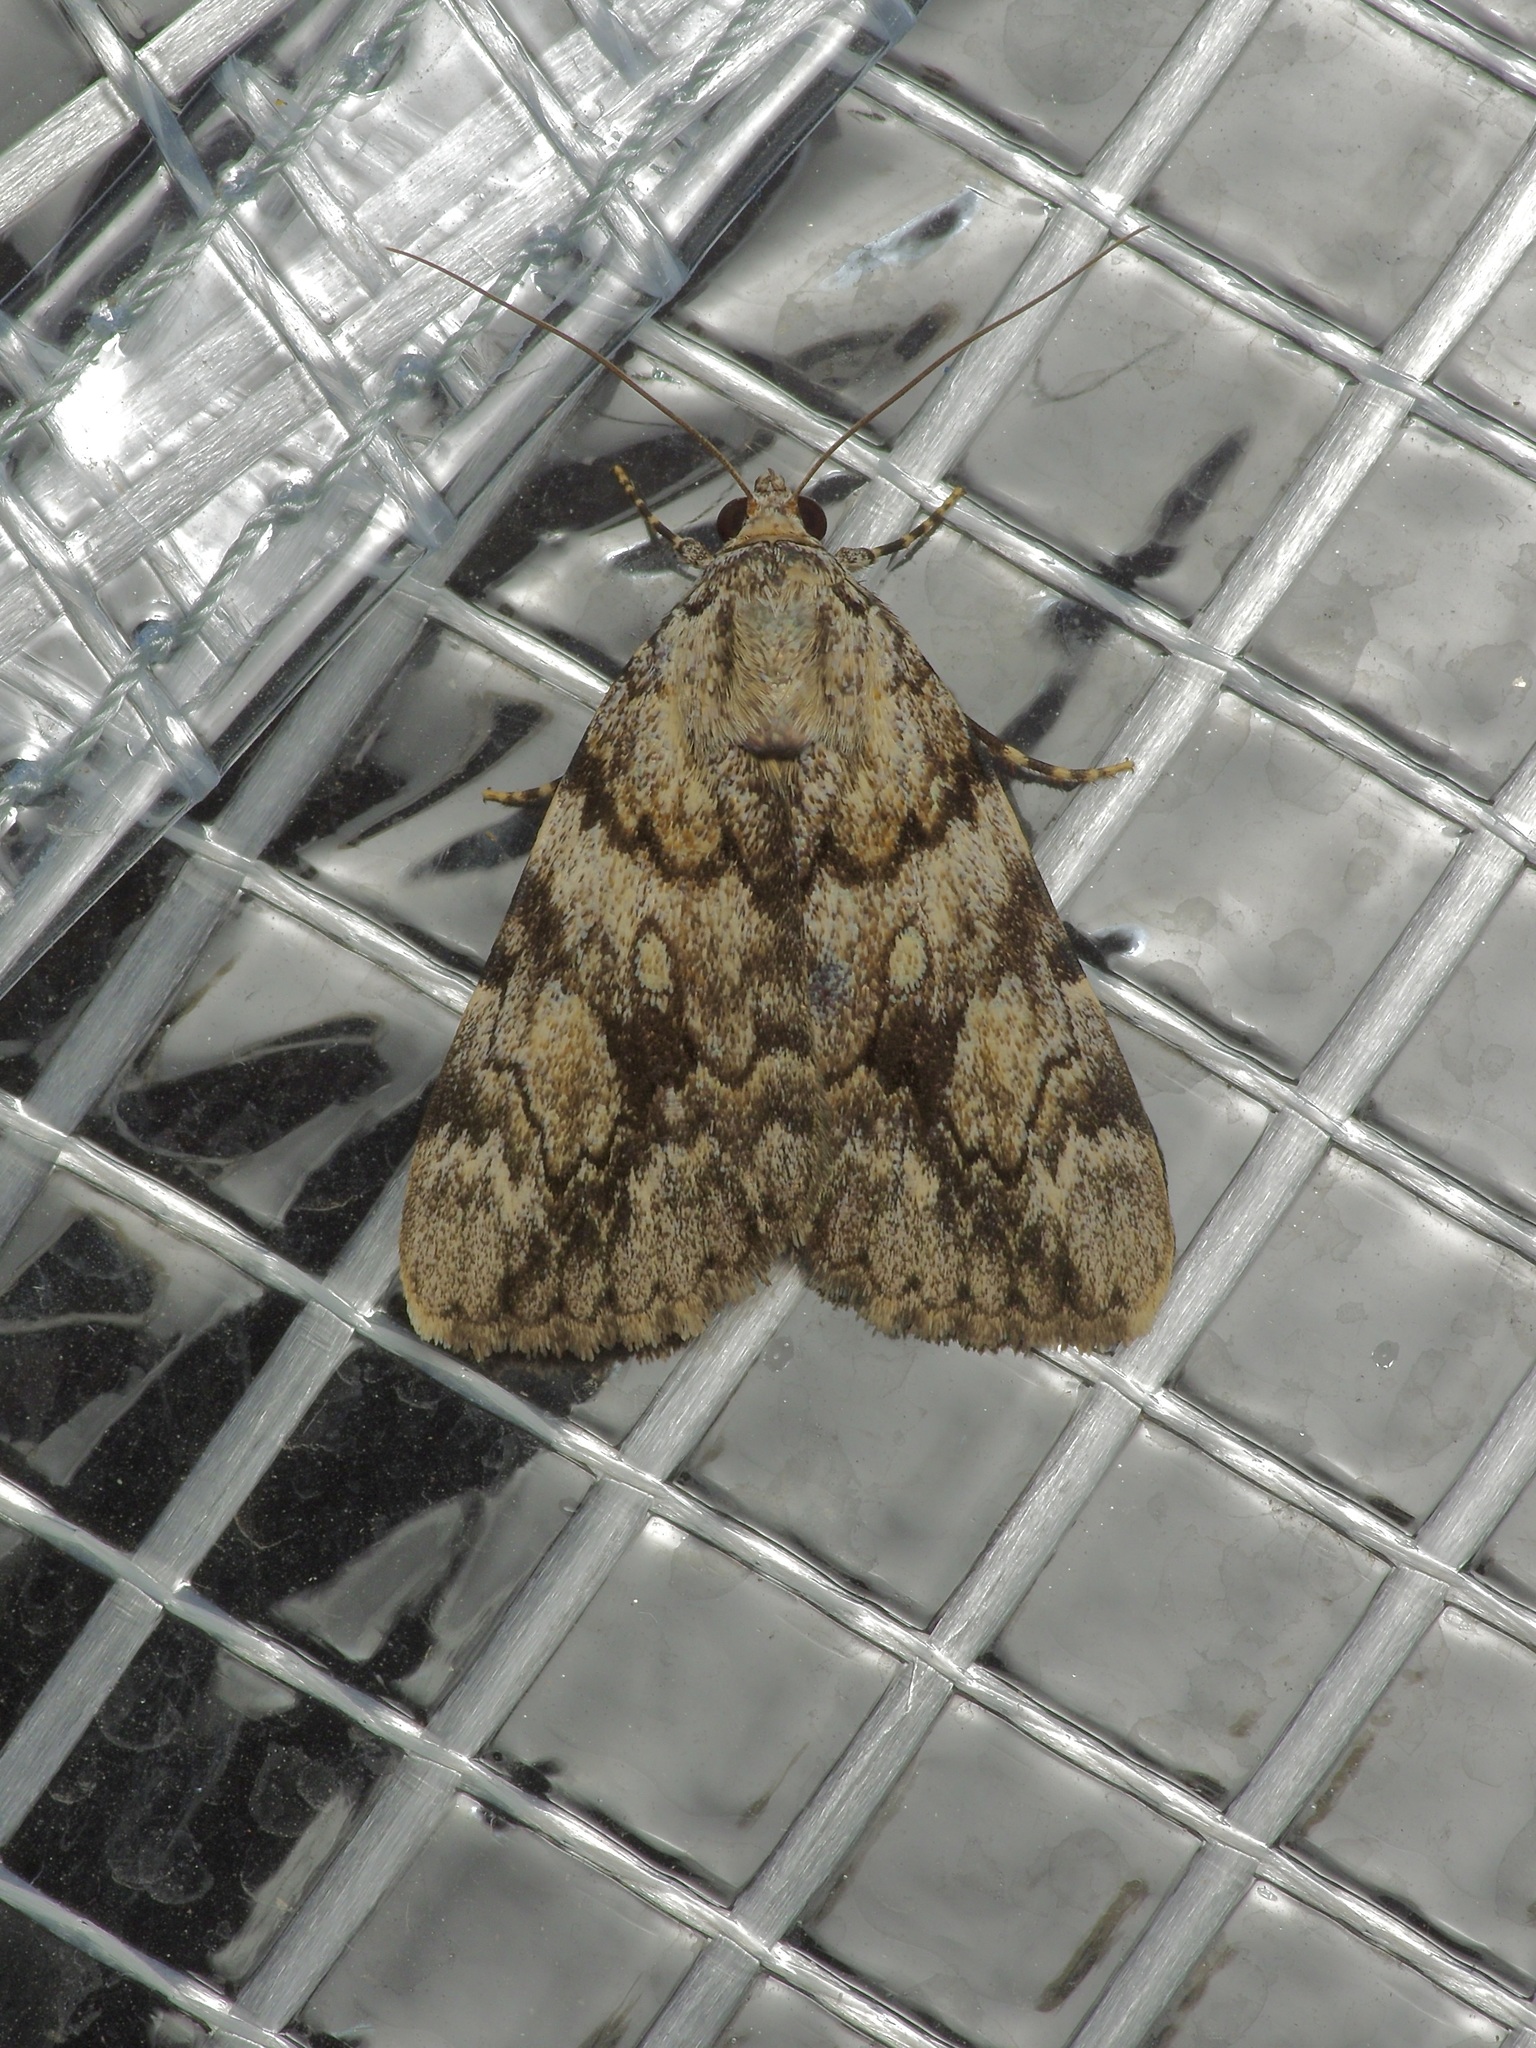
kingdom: Animalia
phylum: Arthropoda
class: Insecta
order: Lepidoptera
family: Erebidae
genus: Catocala
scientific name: Catocala amica
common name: Girlfriend underwing
